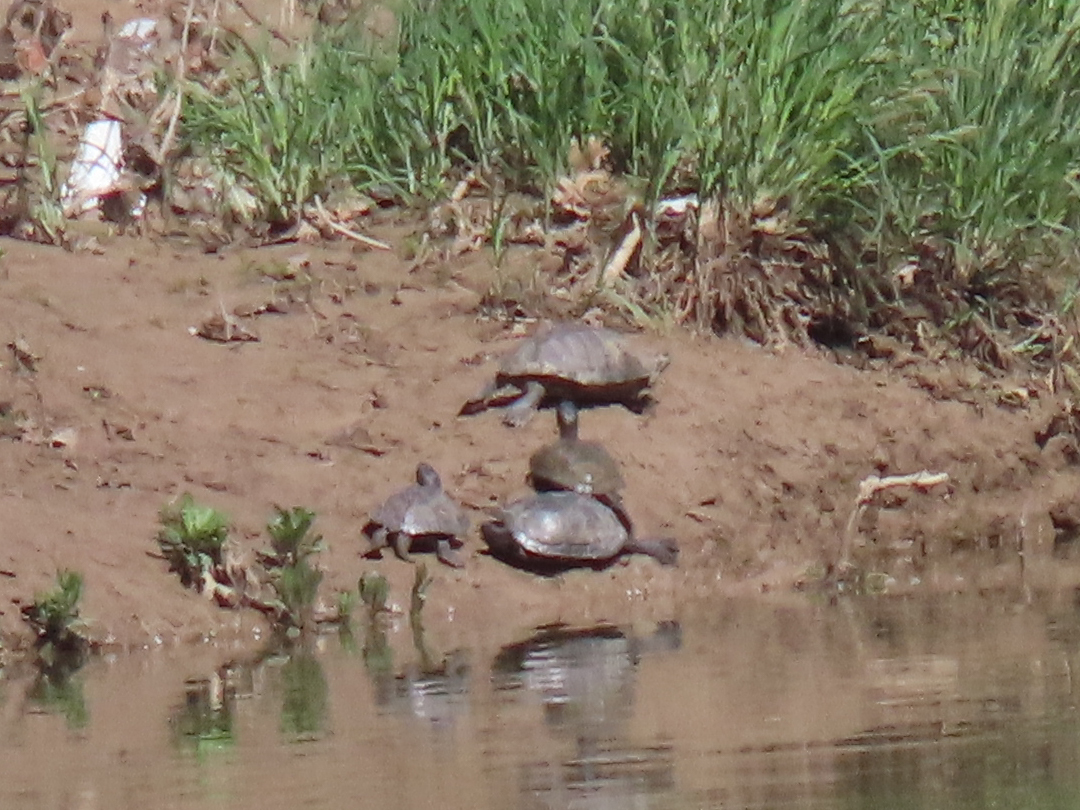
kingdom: Animalia
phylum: Chordata
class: Testudines
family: Emydidae
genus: Trachemys
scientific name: Trachemys scripta
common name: Slider
